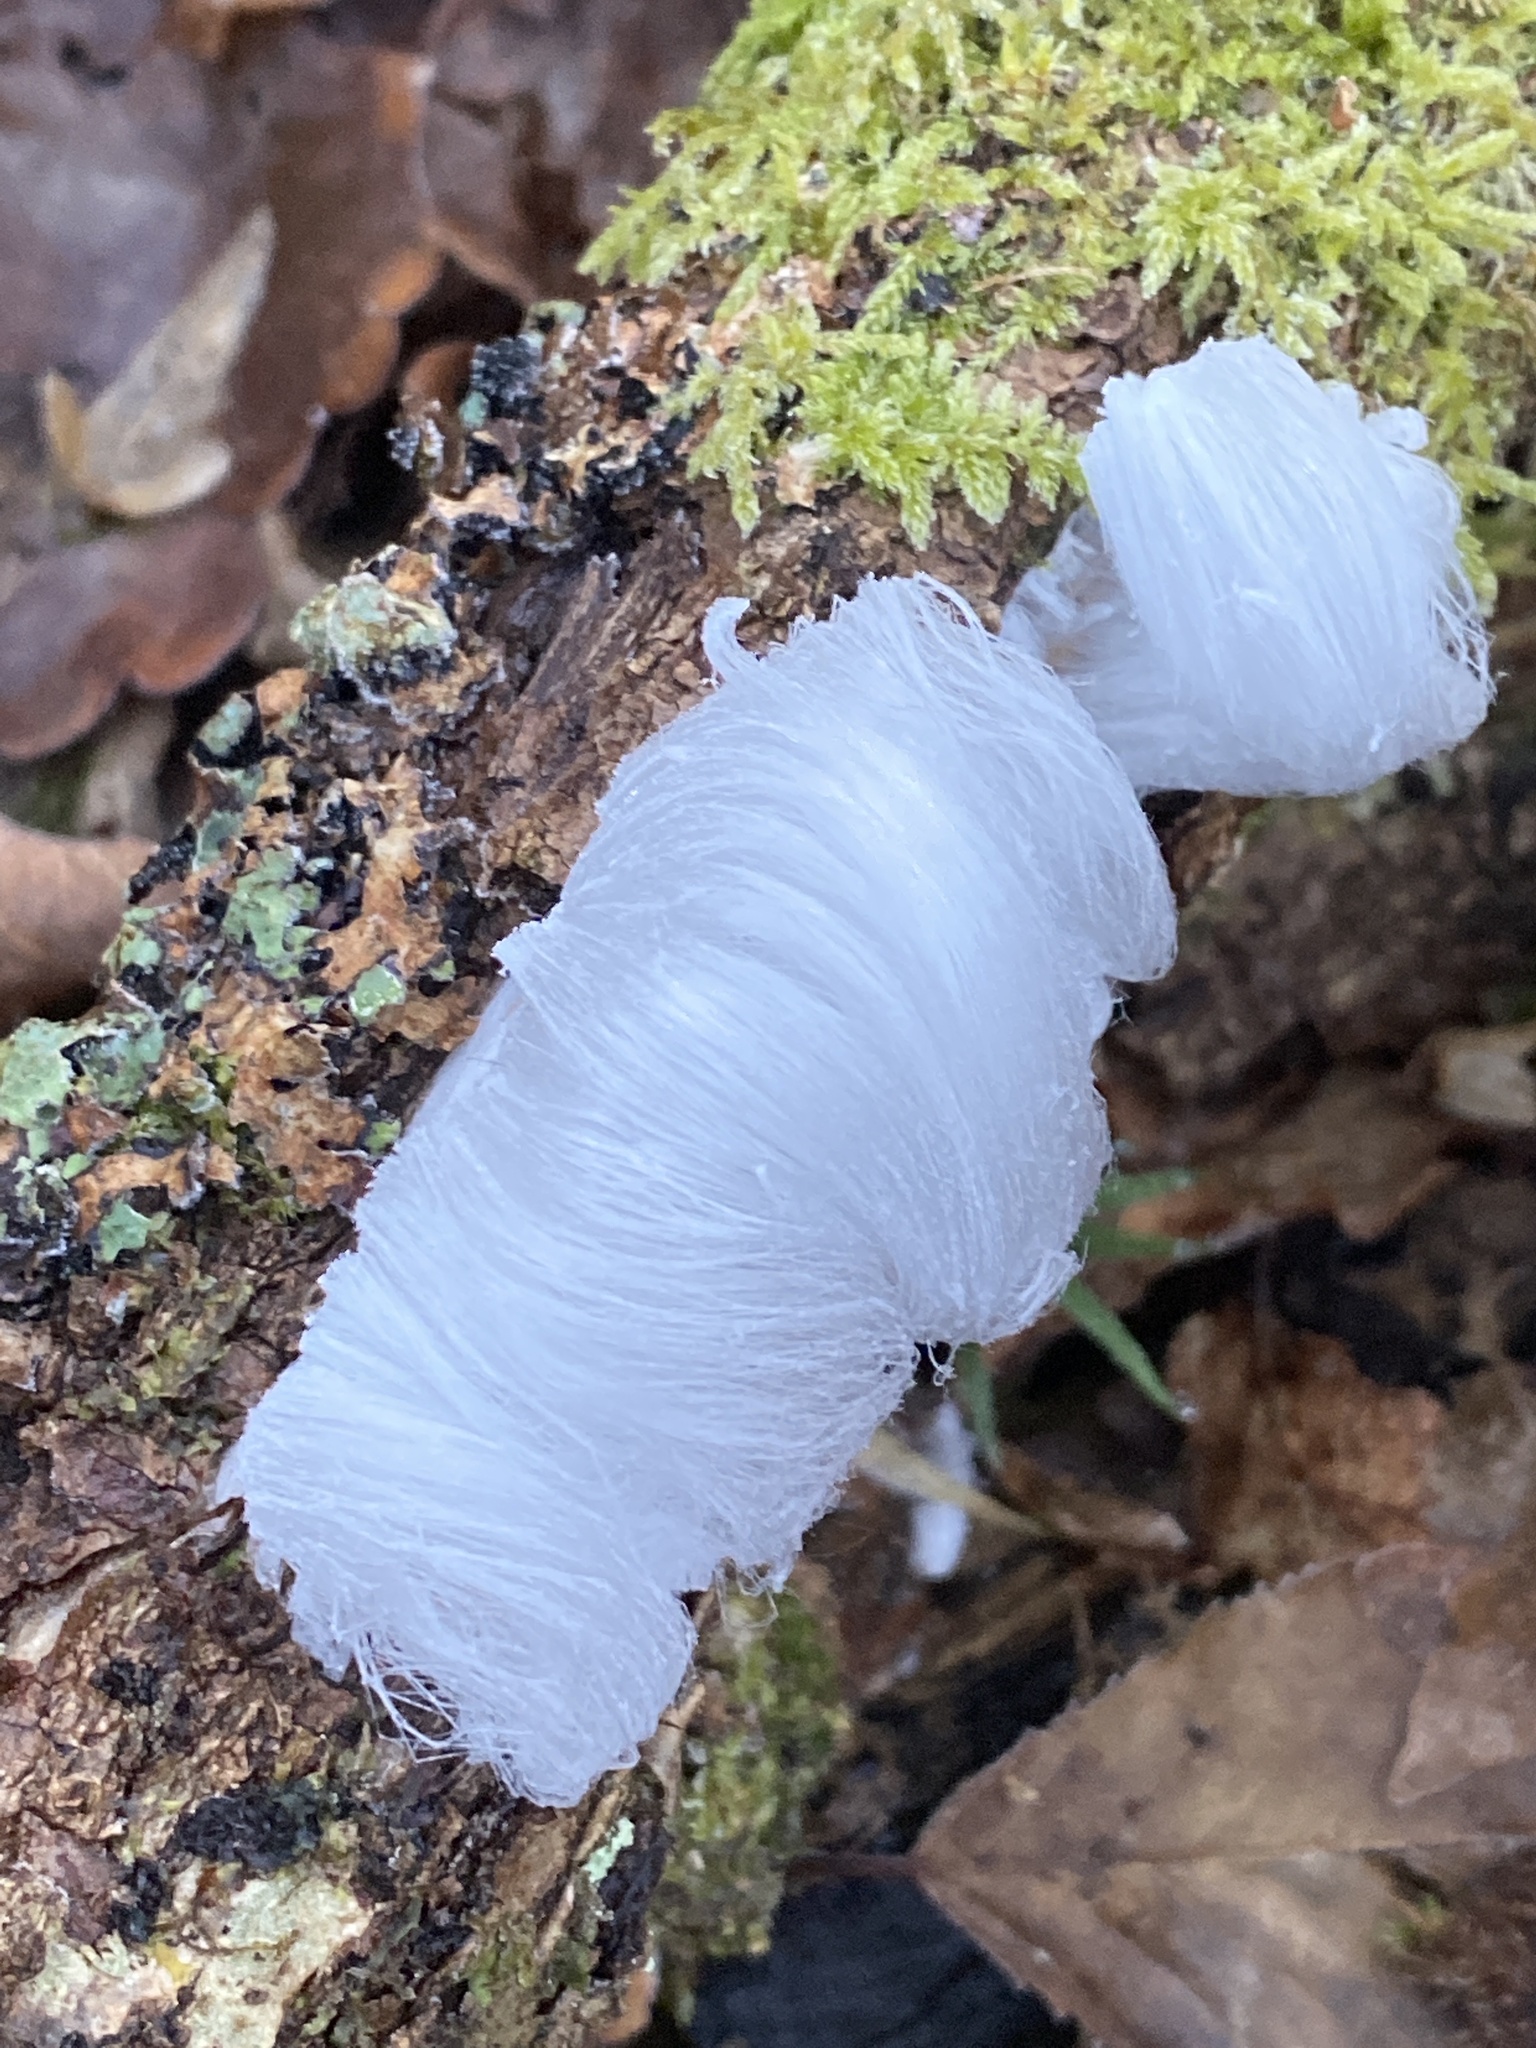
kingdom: Fungi
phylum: Basidiomycota
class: Agaricomycetes
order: Auriculariales
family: Auriculariaceae
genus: Exidiopsis
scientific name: Exidiopsis effusa
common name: Hair ice crust
